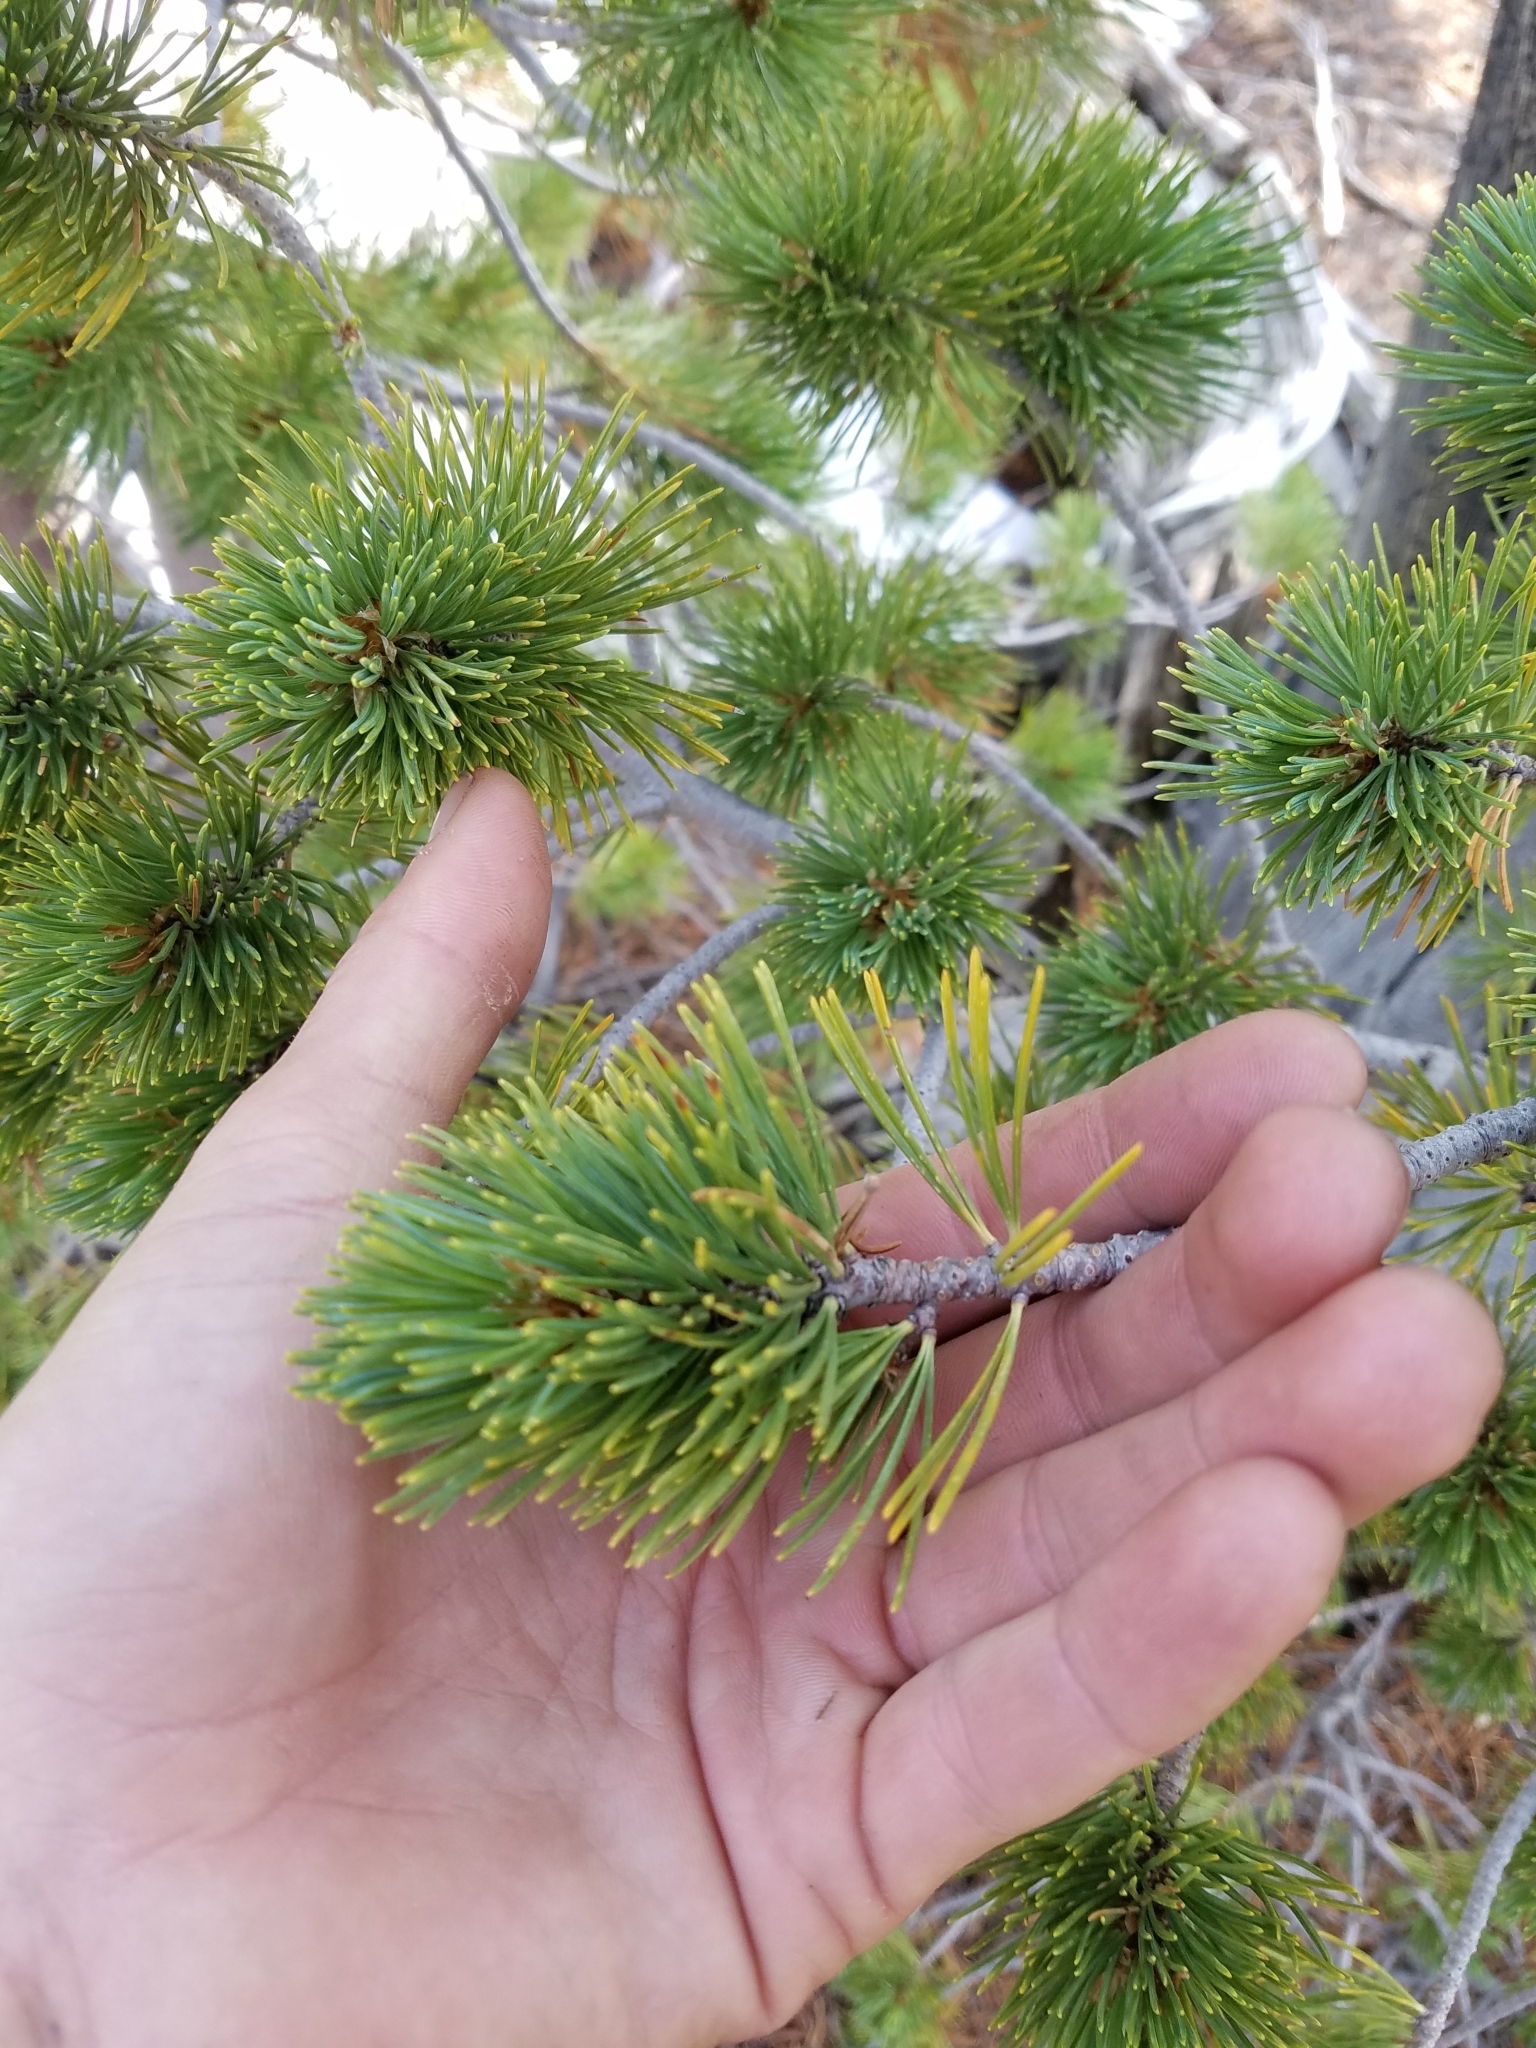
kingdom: Plantae
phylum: Tracheophyta
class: Pinopsida
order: Pinales
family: Pinaceae
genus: Pinus
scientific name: Pinus albicaulis
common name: Whitebark pine
